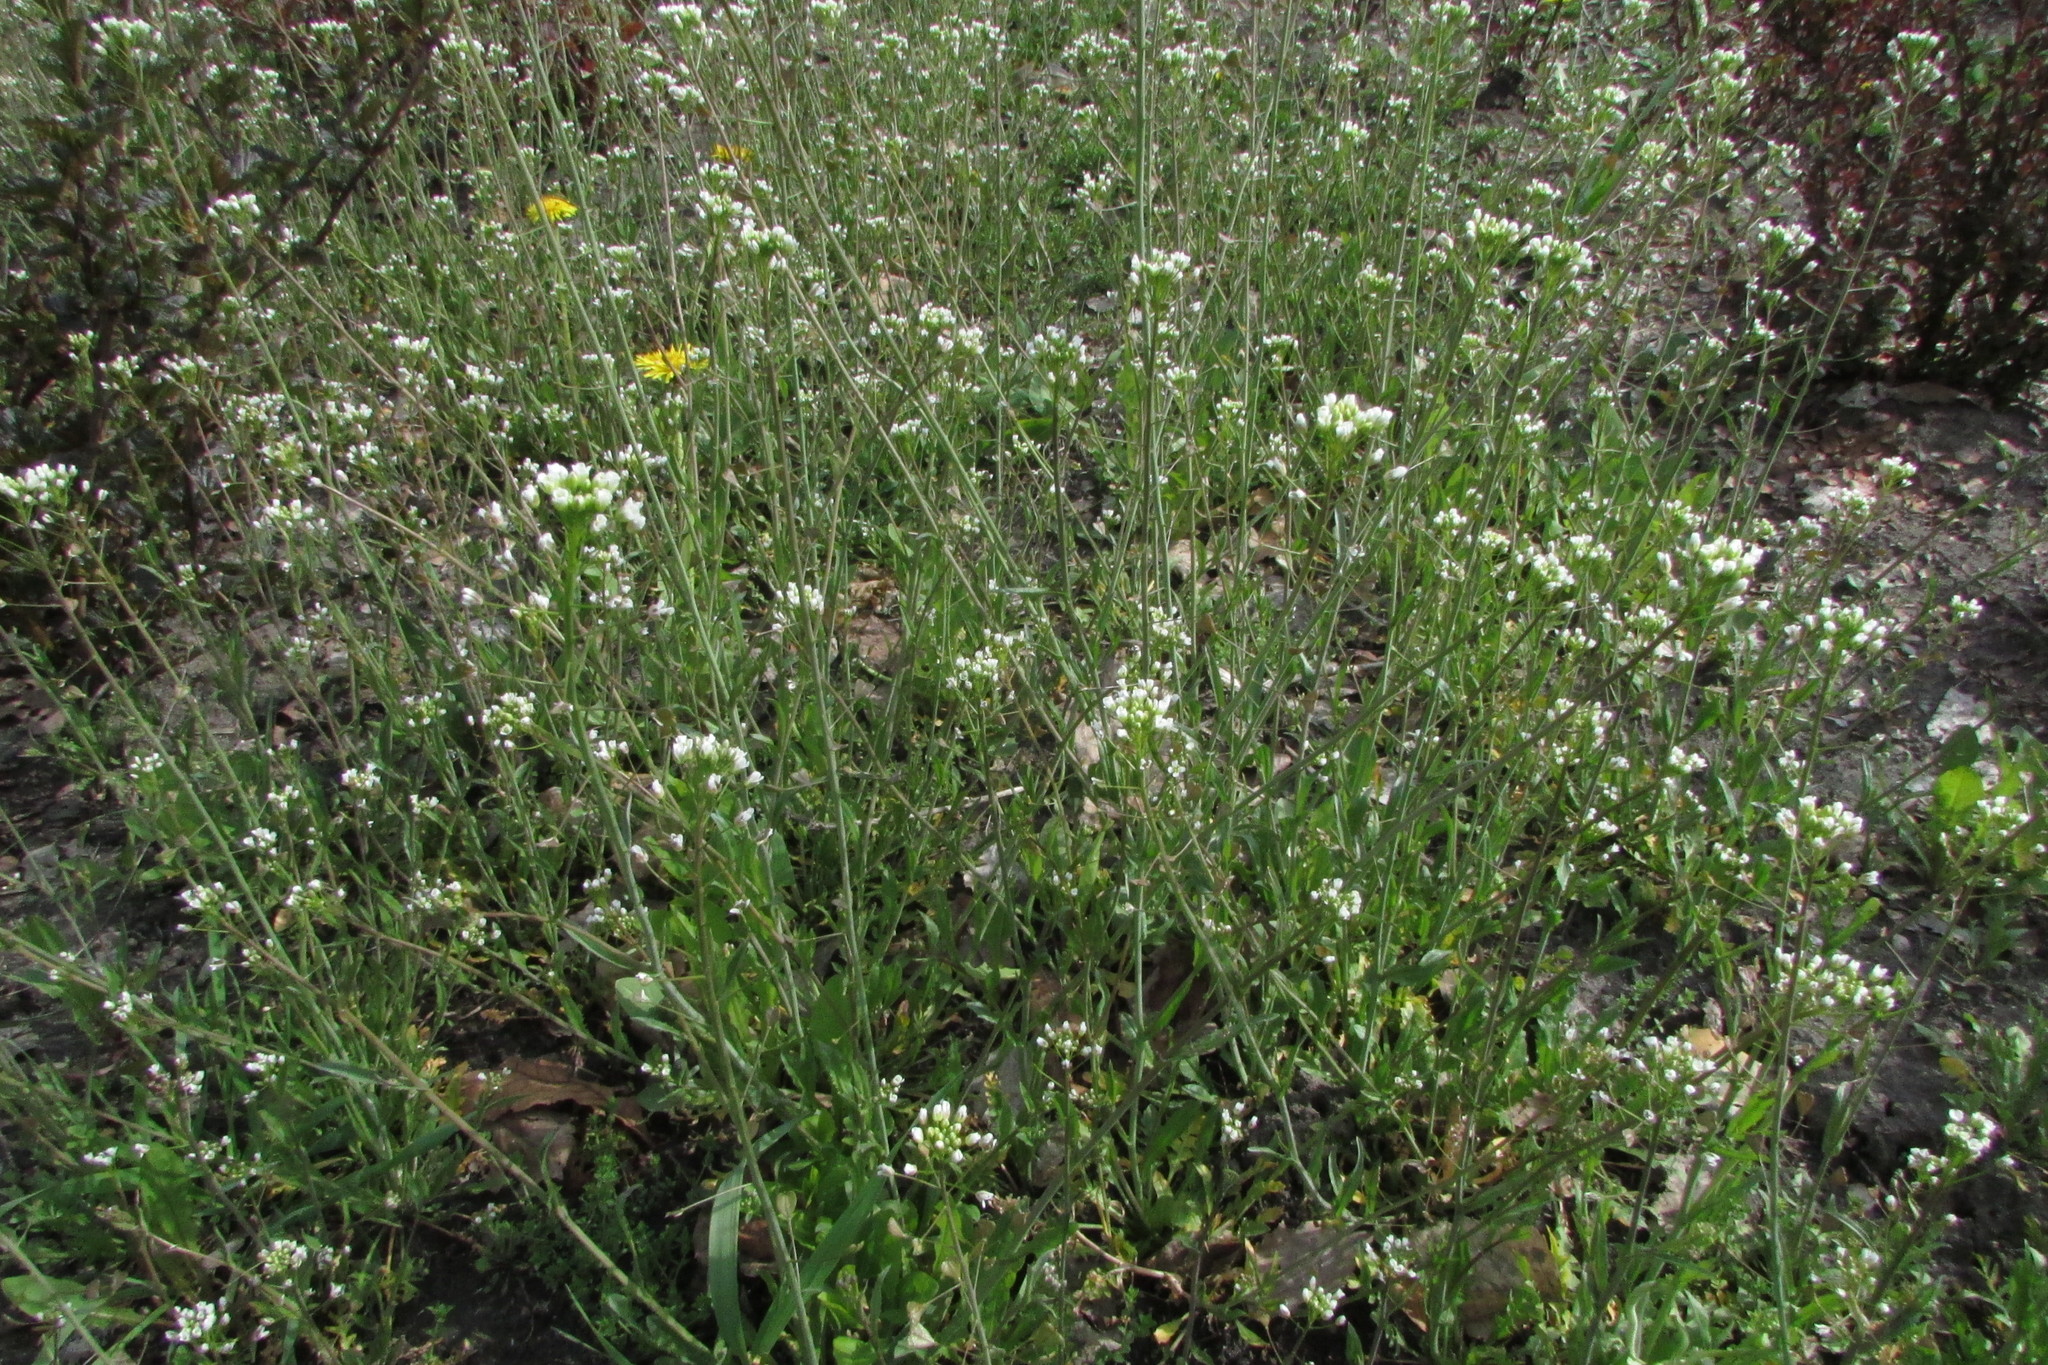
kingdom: Plantae
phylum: Tracheophyta
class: Magnoliopsida
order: Brassicales
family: Brassicaceae
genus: Capsella
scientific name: Capsella bursa-pastoris
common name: Shepherd's purse
